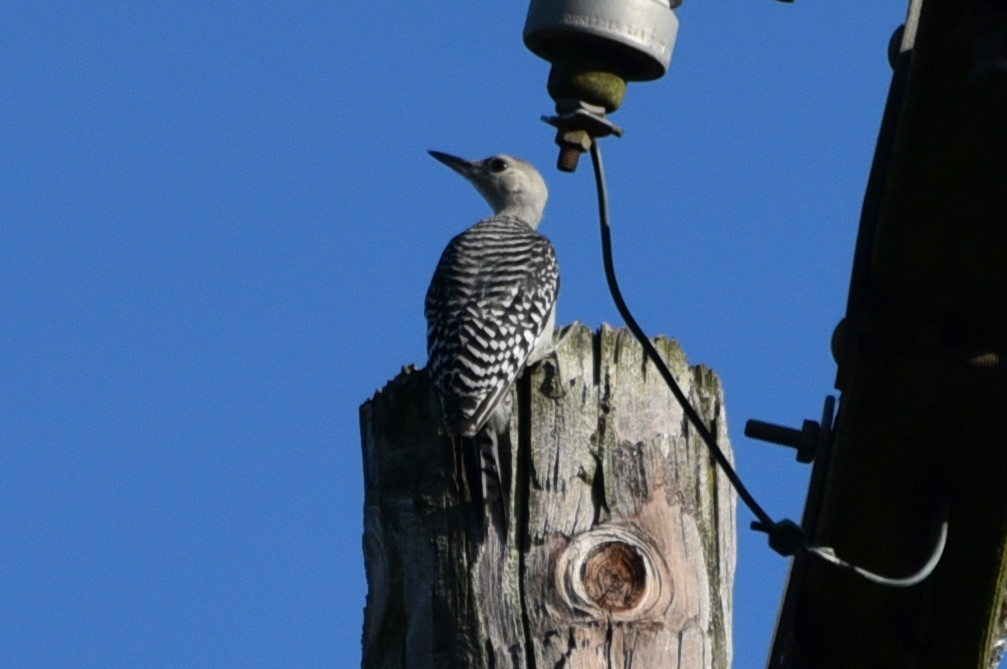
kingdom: Animalia
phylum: Chordata
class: Aves
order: Piciformes
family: Picidae
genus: Melanerpes
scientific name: Melanerpes carolinus
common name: Red-bellied woodpecker
